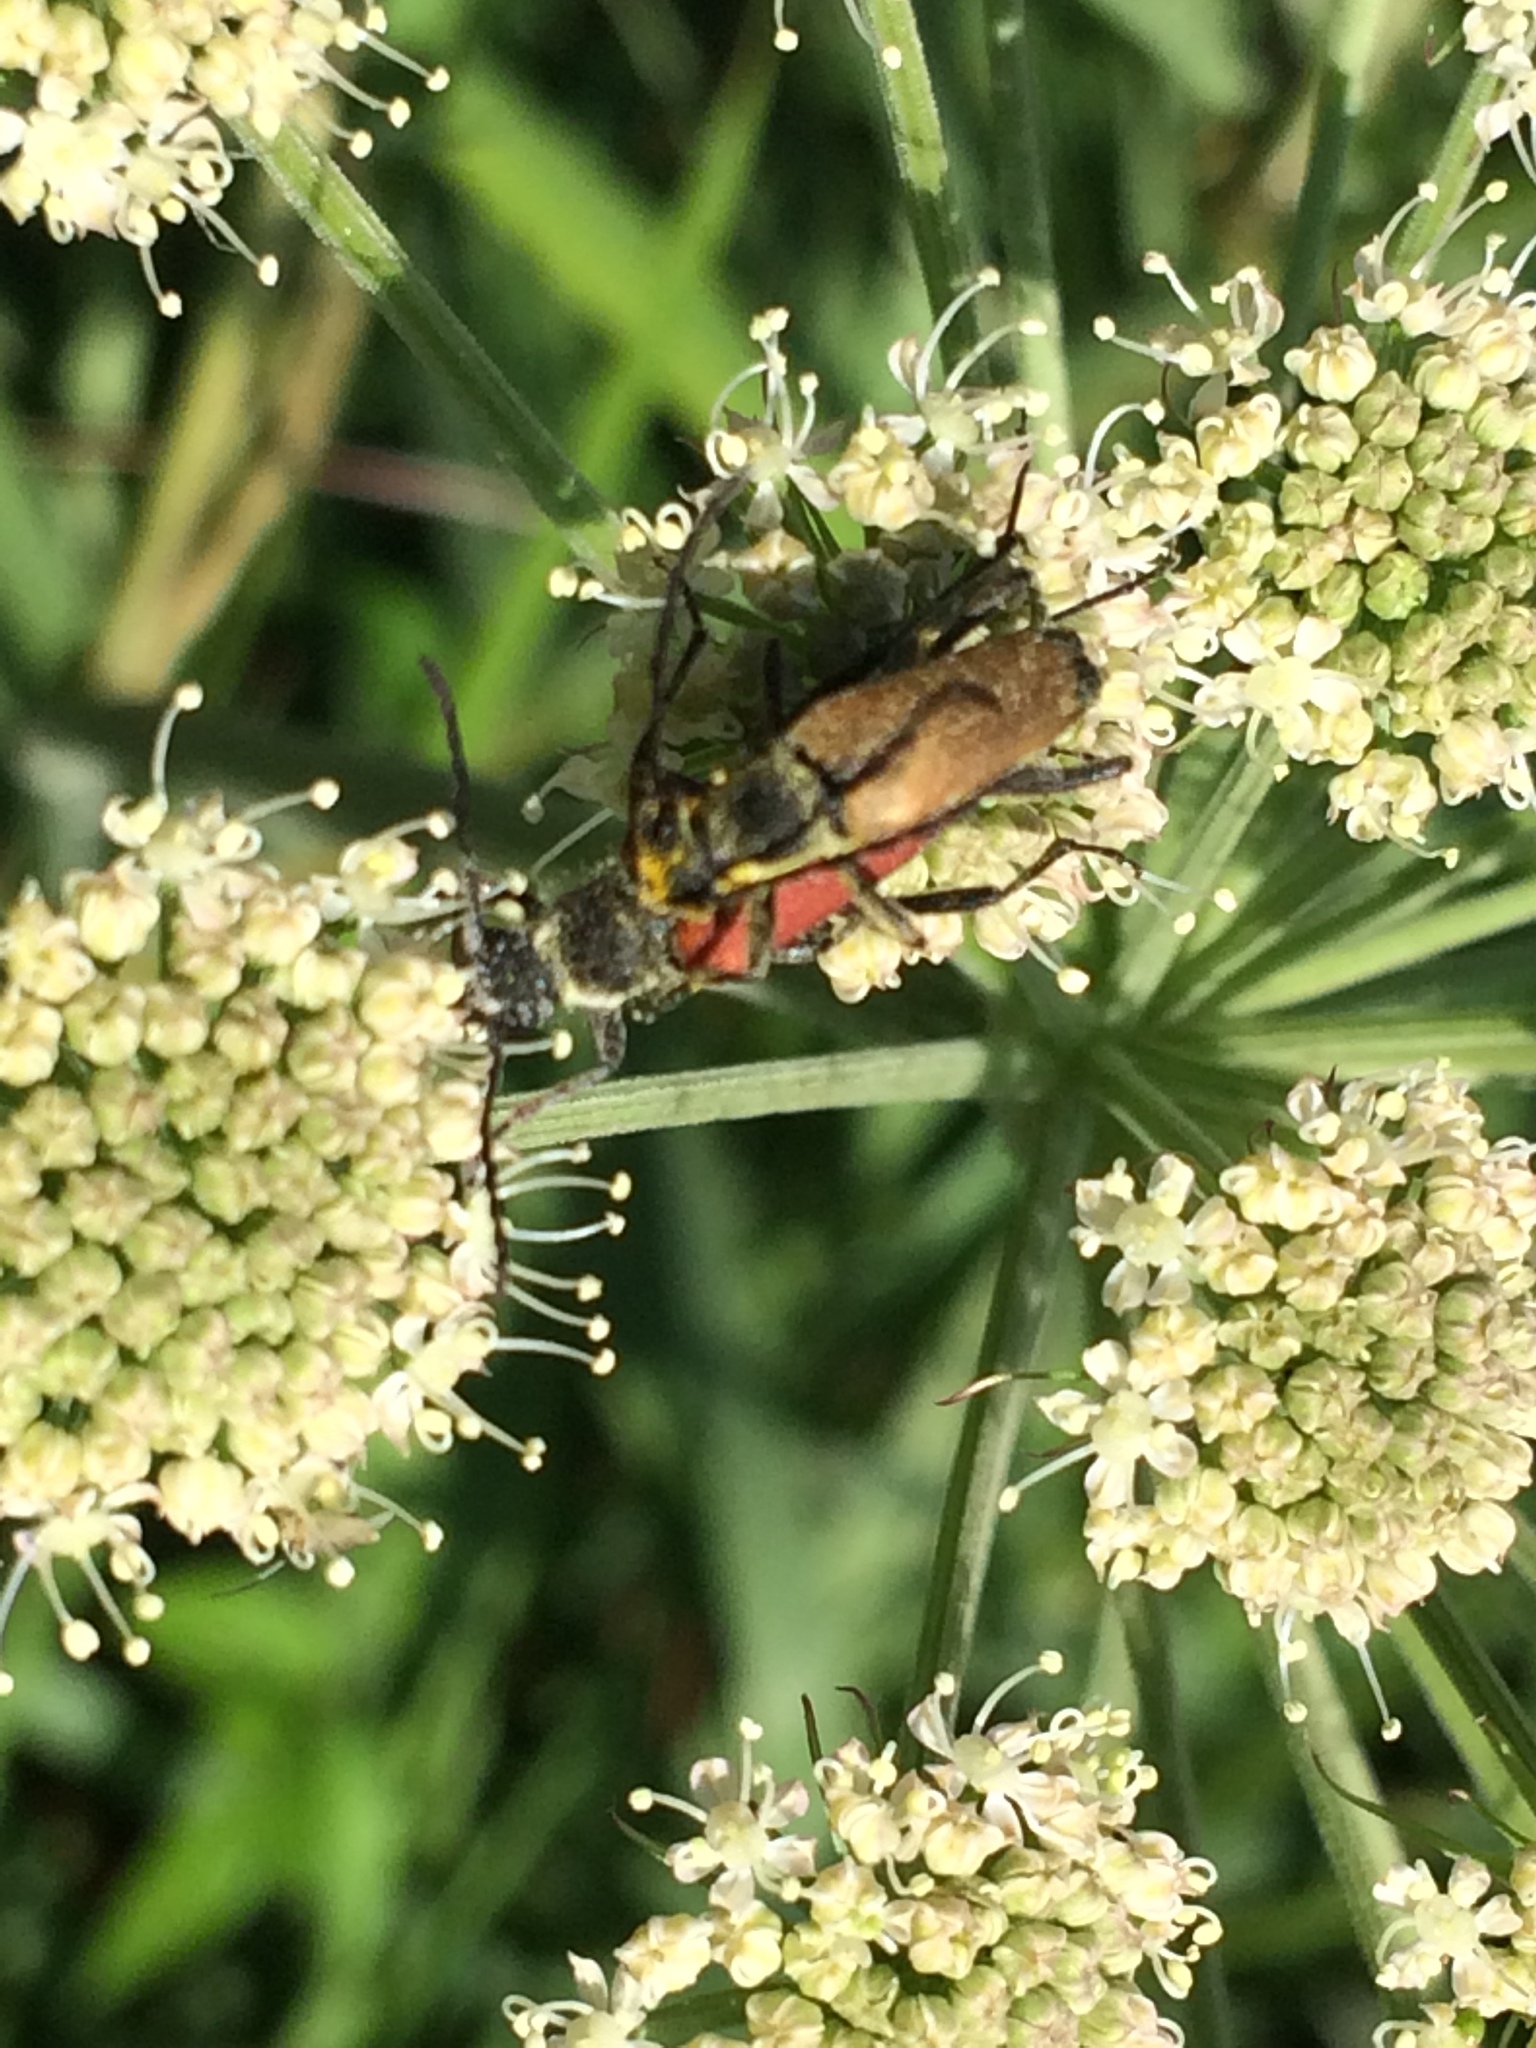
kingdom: Animalia
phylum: Arthropoda
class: Insecta
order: Coleoptera
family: Cerambycidae
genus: Anastrangalia
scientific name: Anastrangalia sanguinolenta
